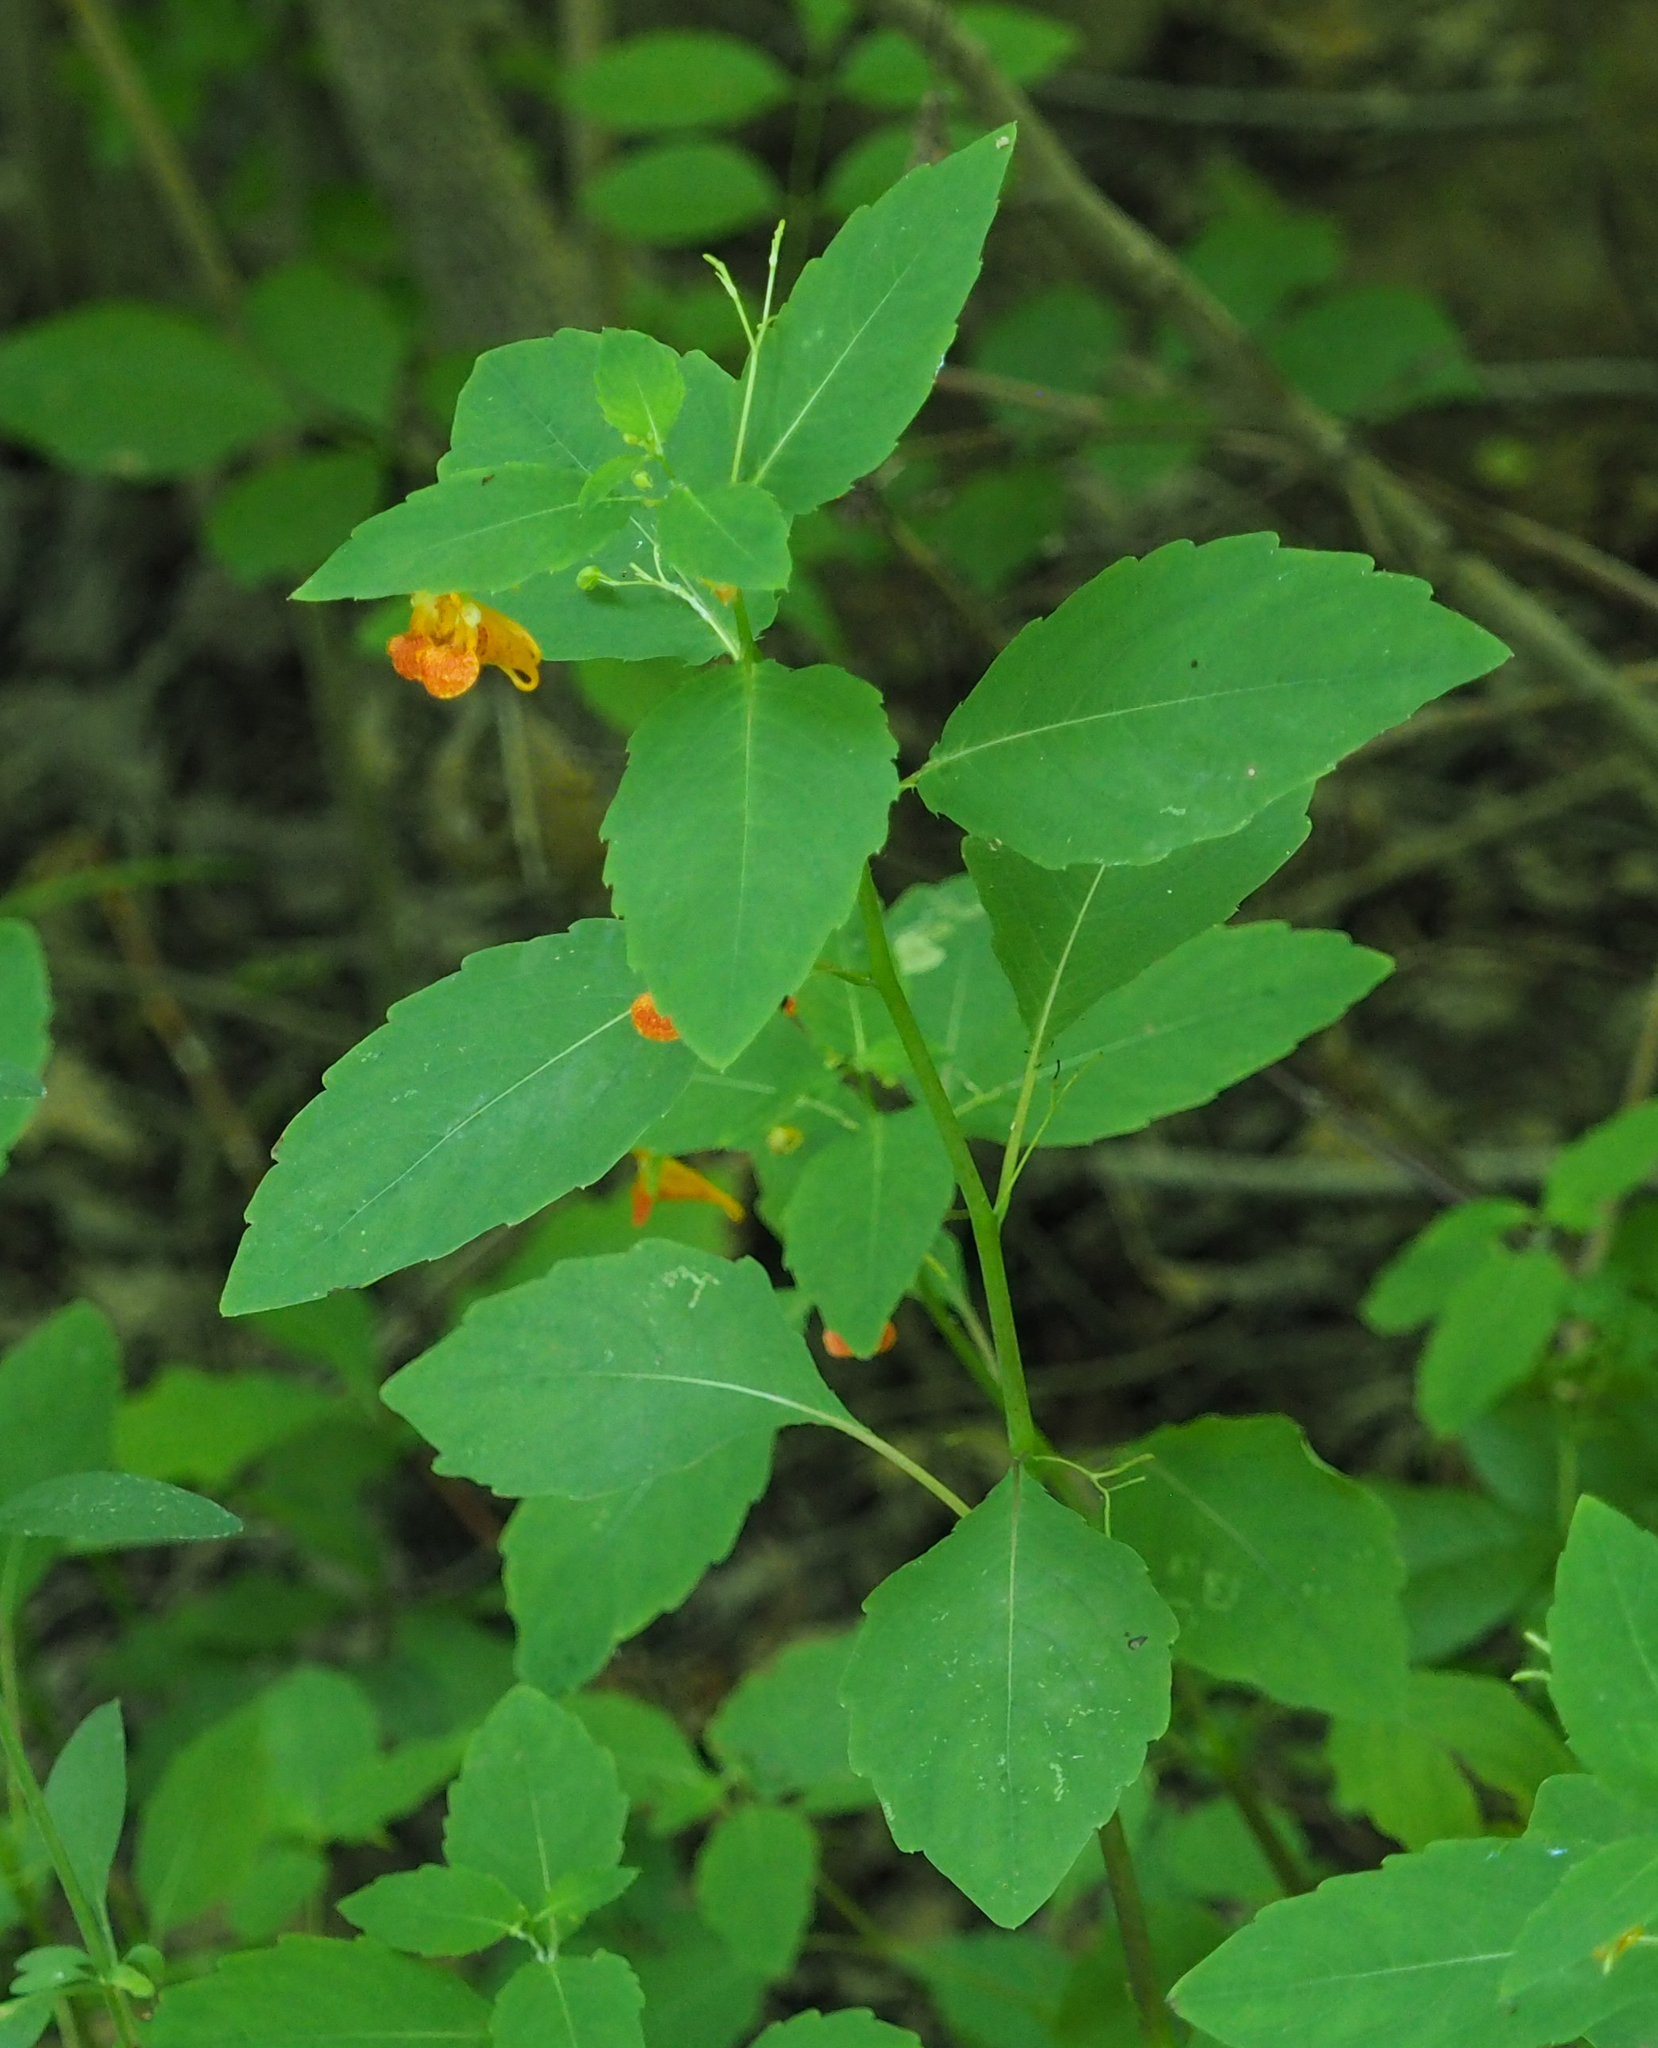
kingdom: Plantae
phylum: Tracheophyta
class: Magnoliopsida
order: Ericales
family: Balsaminaceae
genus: Impatiens
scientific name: Impatiens capensis
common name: Orange balsam
